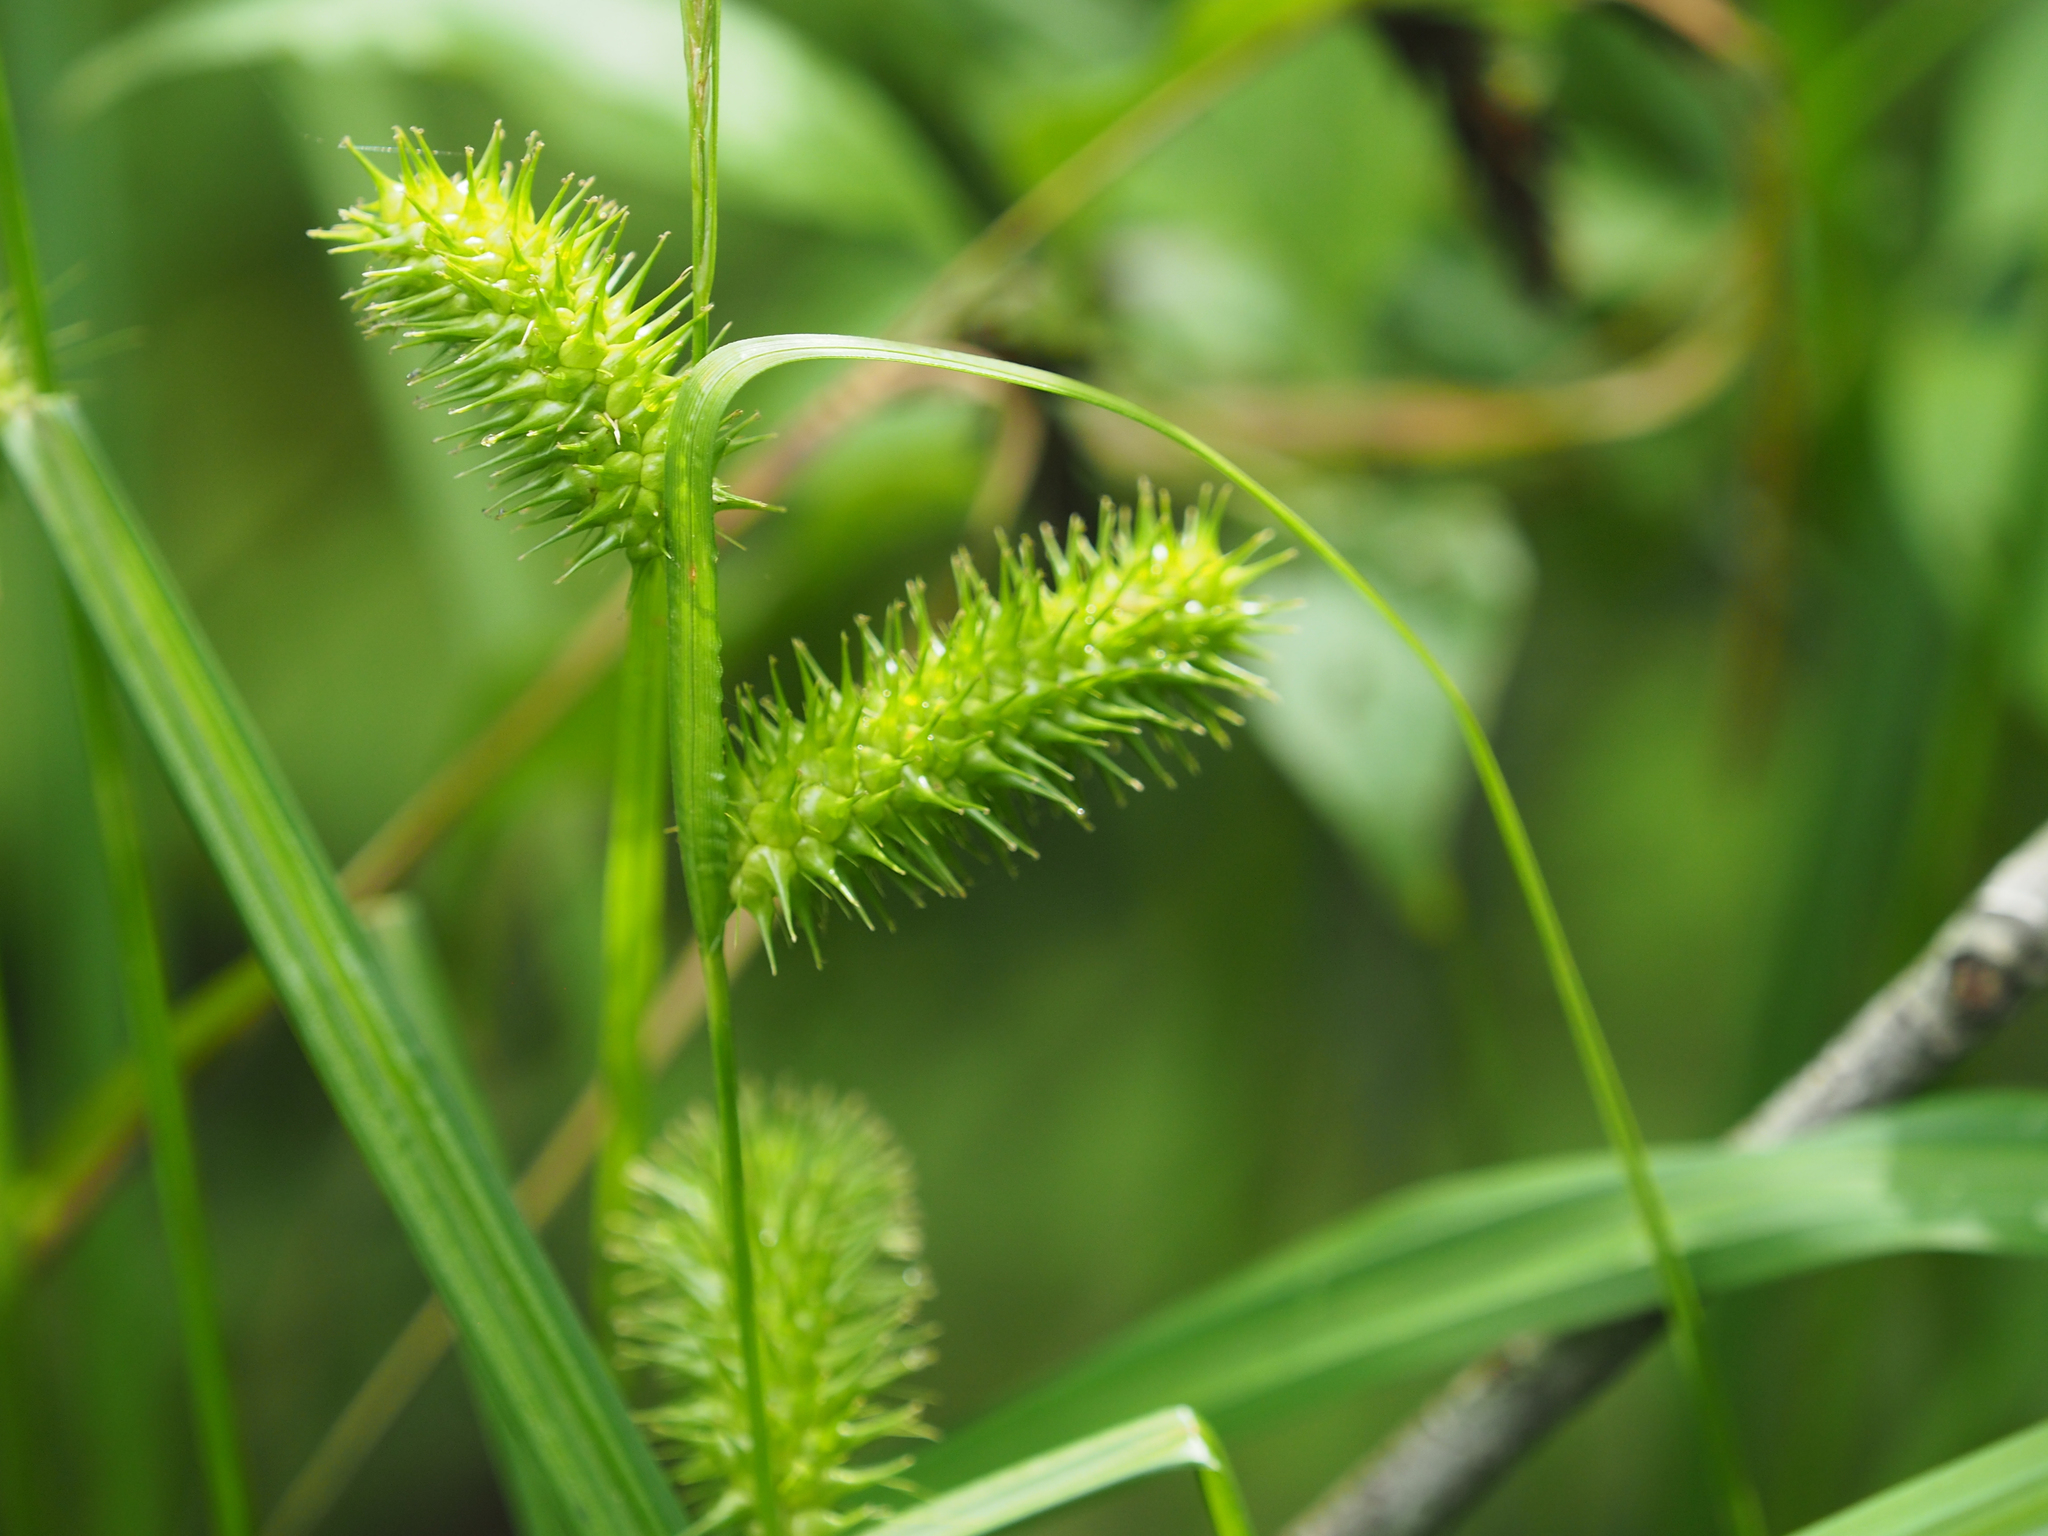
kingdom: Plantae
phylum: Tracheophyta
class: Liliopsida
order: Poales
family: Cyperaceae
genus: Carex
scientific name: Carex lurida
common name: Sallow sedge
